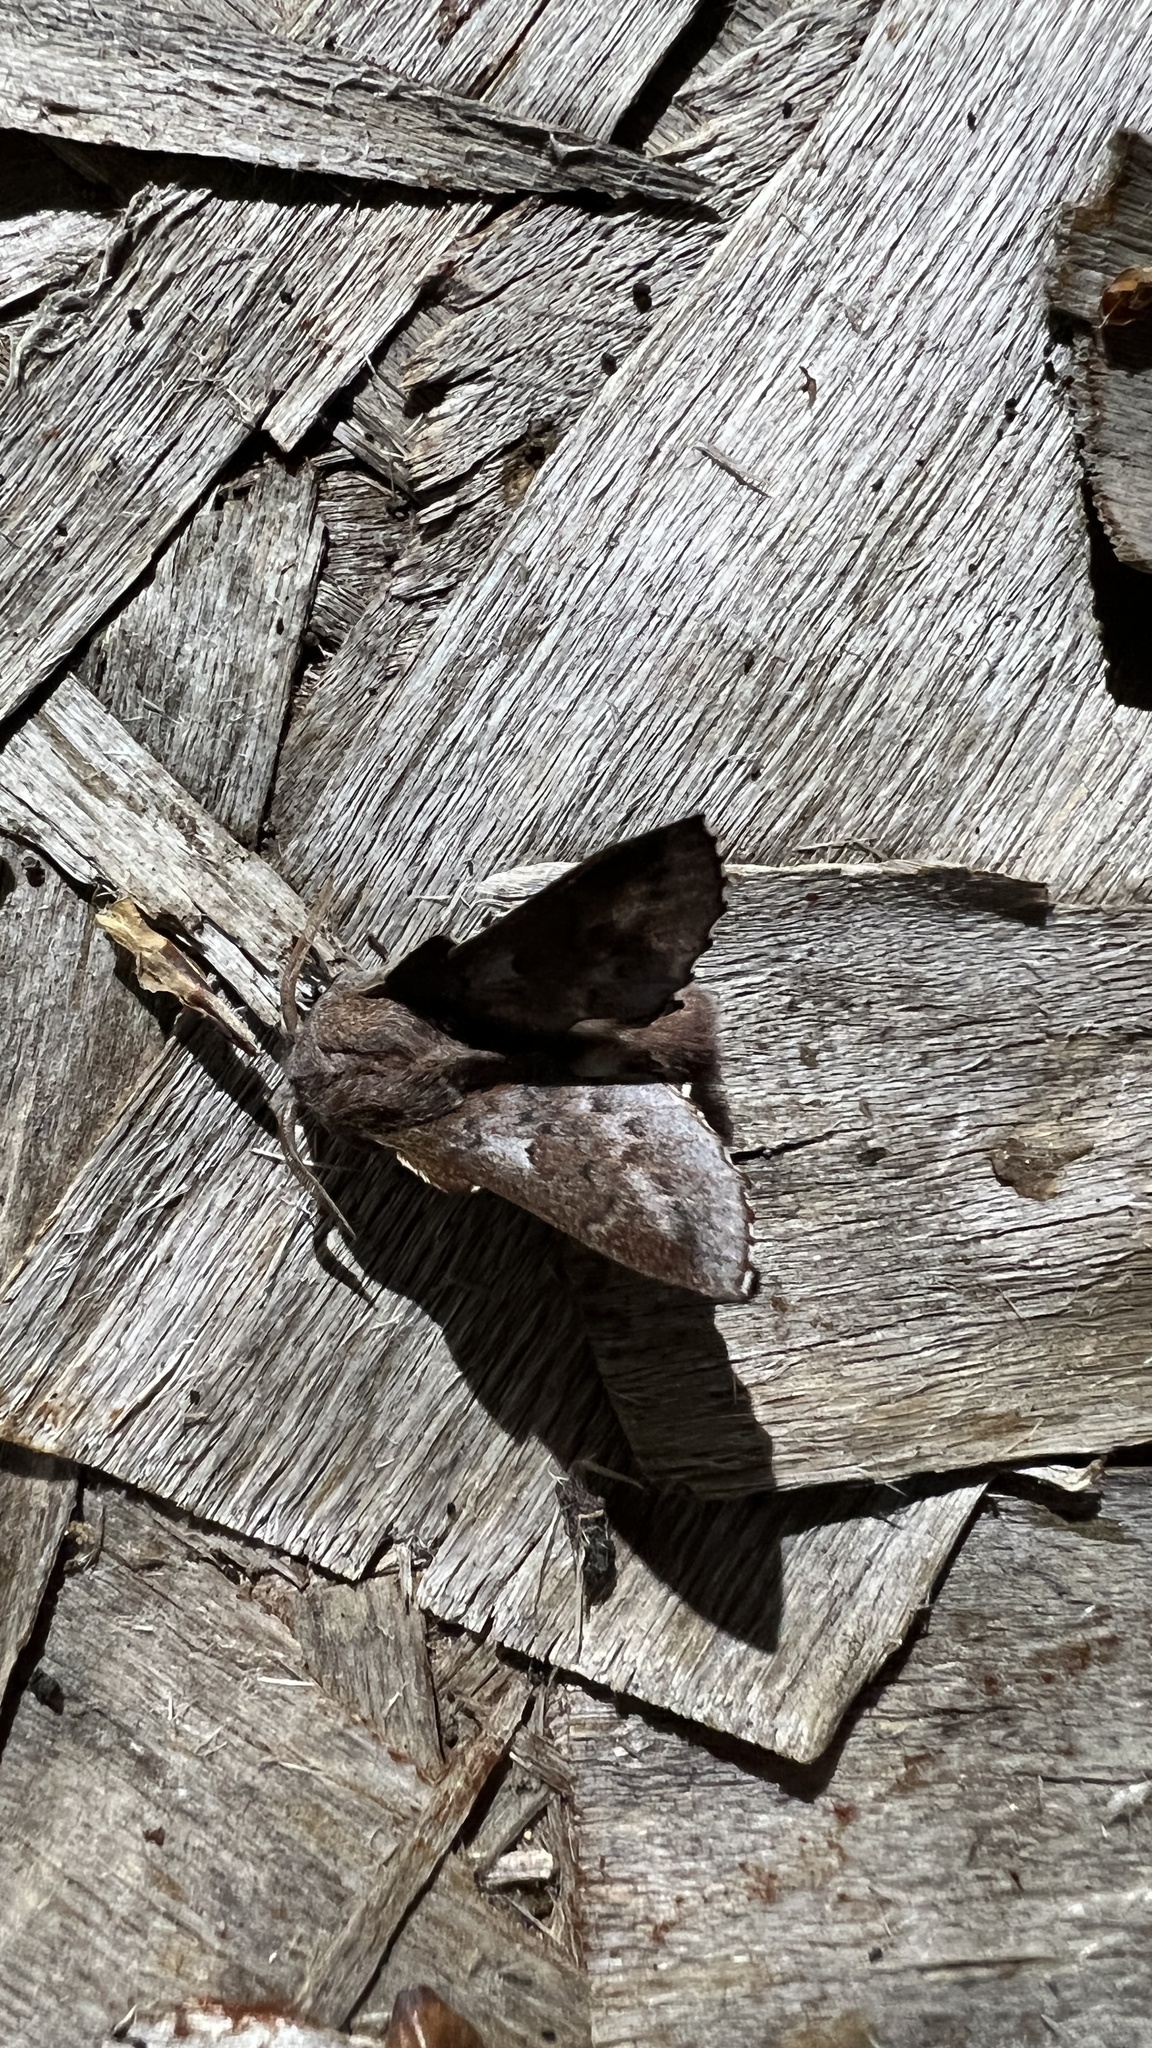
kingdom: Animalia
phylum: Arthropoda
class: Insecta
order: Lepidoptera
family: Lasiocampidae
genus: Phyllodesma
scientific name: Phyllodesma americana
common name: American lappet moth
